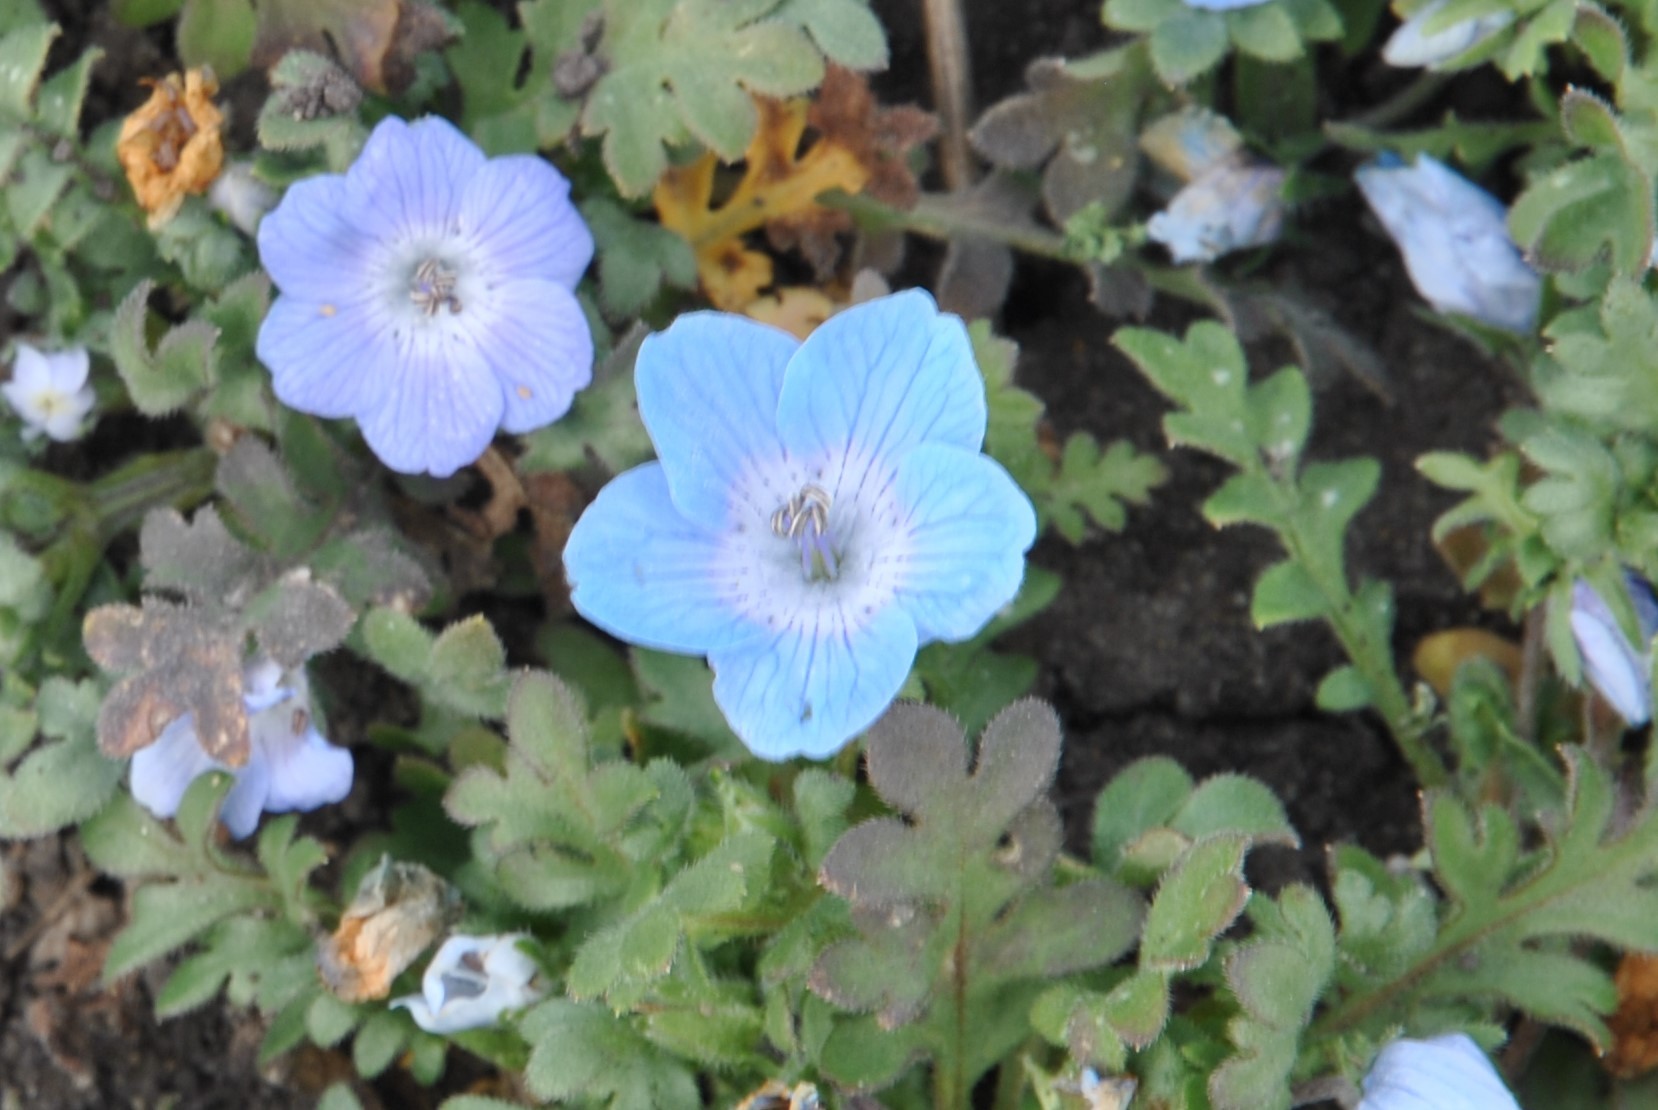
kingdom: Plantae
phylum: Tracheophyta
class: Magnoliopsida
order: Boraginales
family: Hydrophyllaceae
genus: Nemophila
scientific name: Nemophila menziesii
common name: Baby's-blue-eyes
